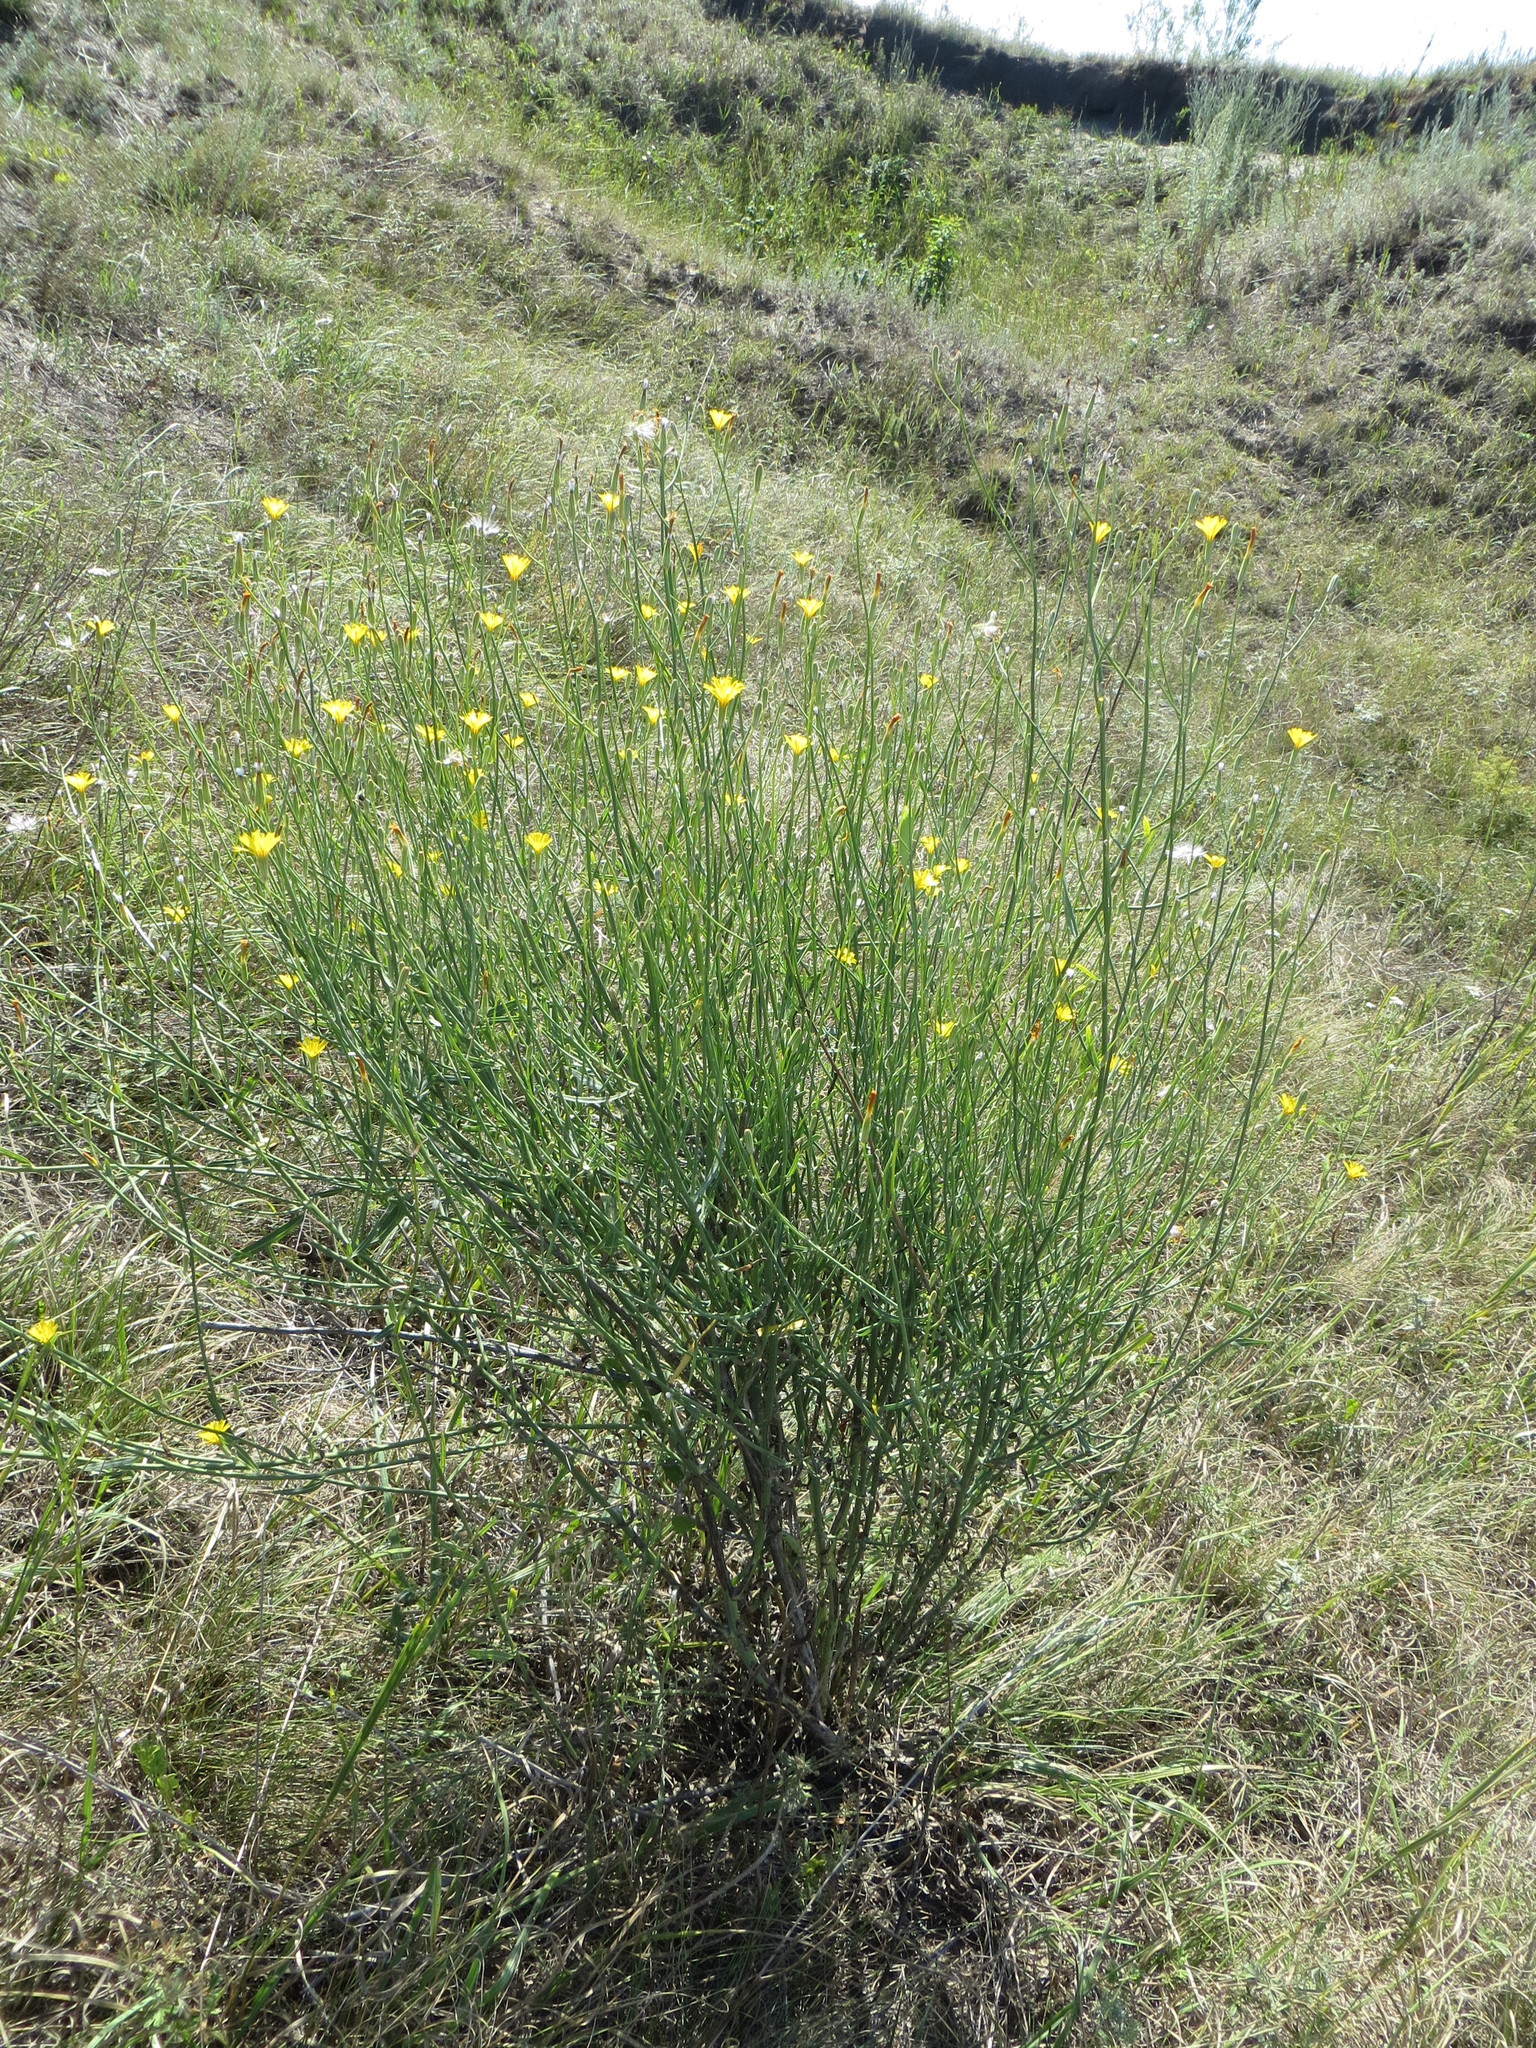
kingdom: Plantae
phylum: Tracheophyta
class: Magnoliopsida
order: Asterales
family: Asteraceae
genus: Chondrilla
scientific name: Chondrilla juncea
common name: Skeleton weed
